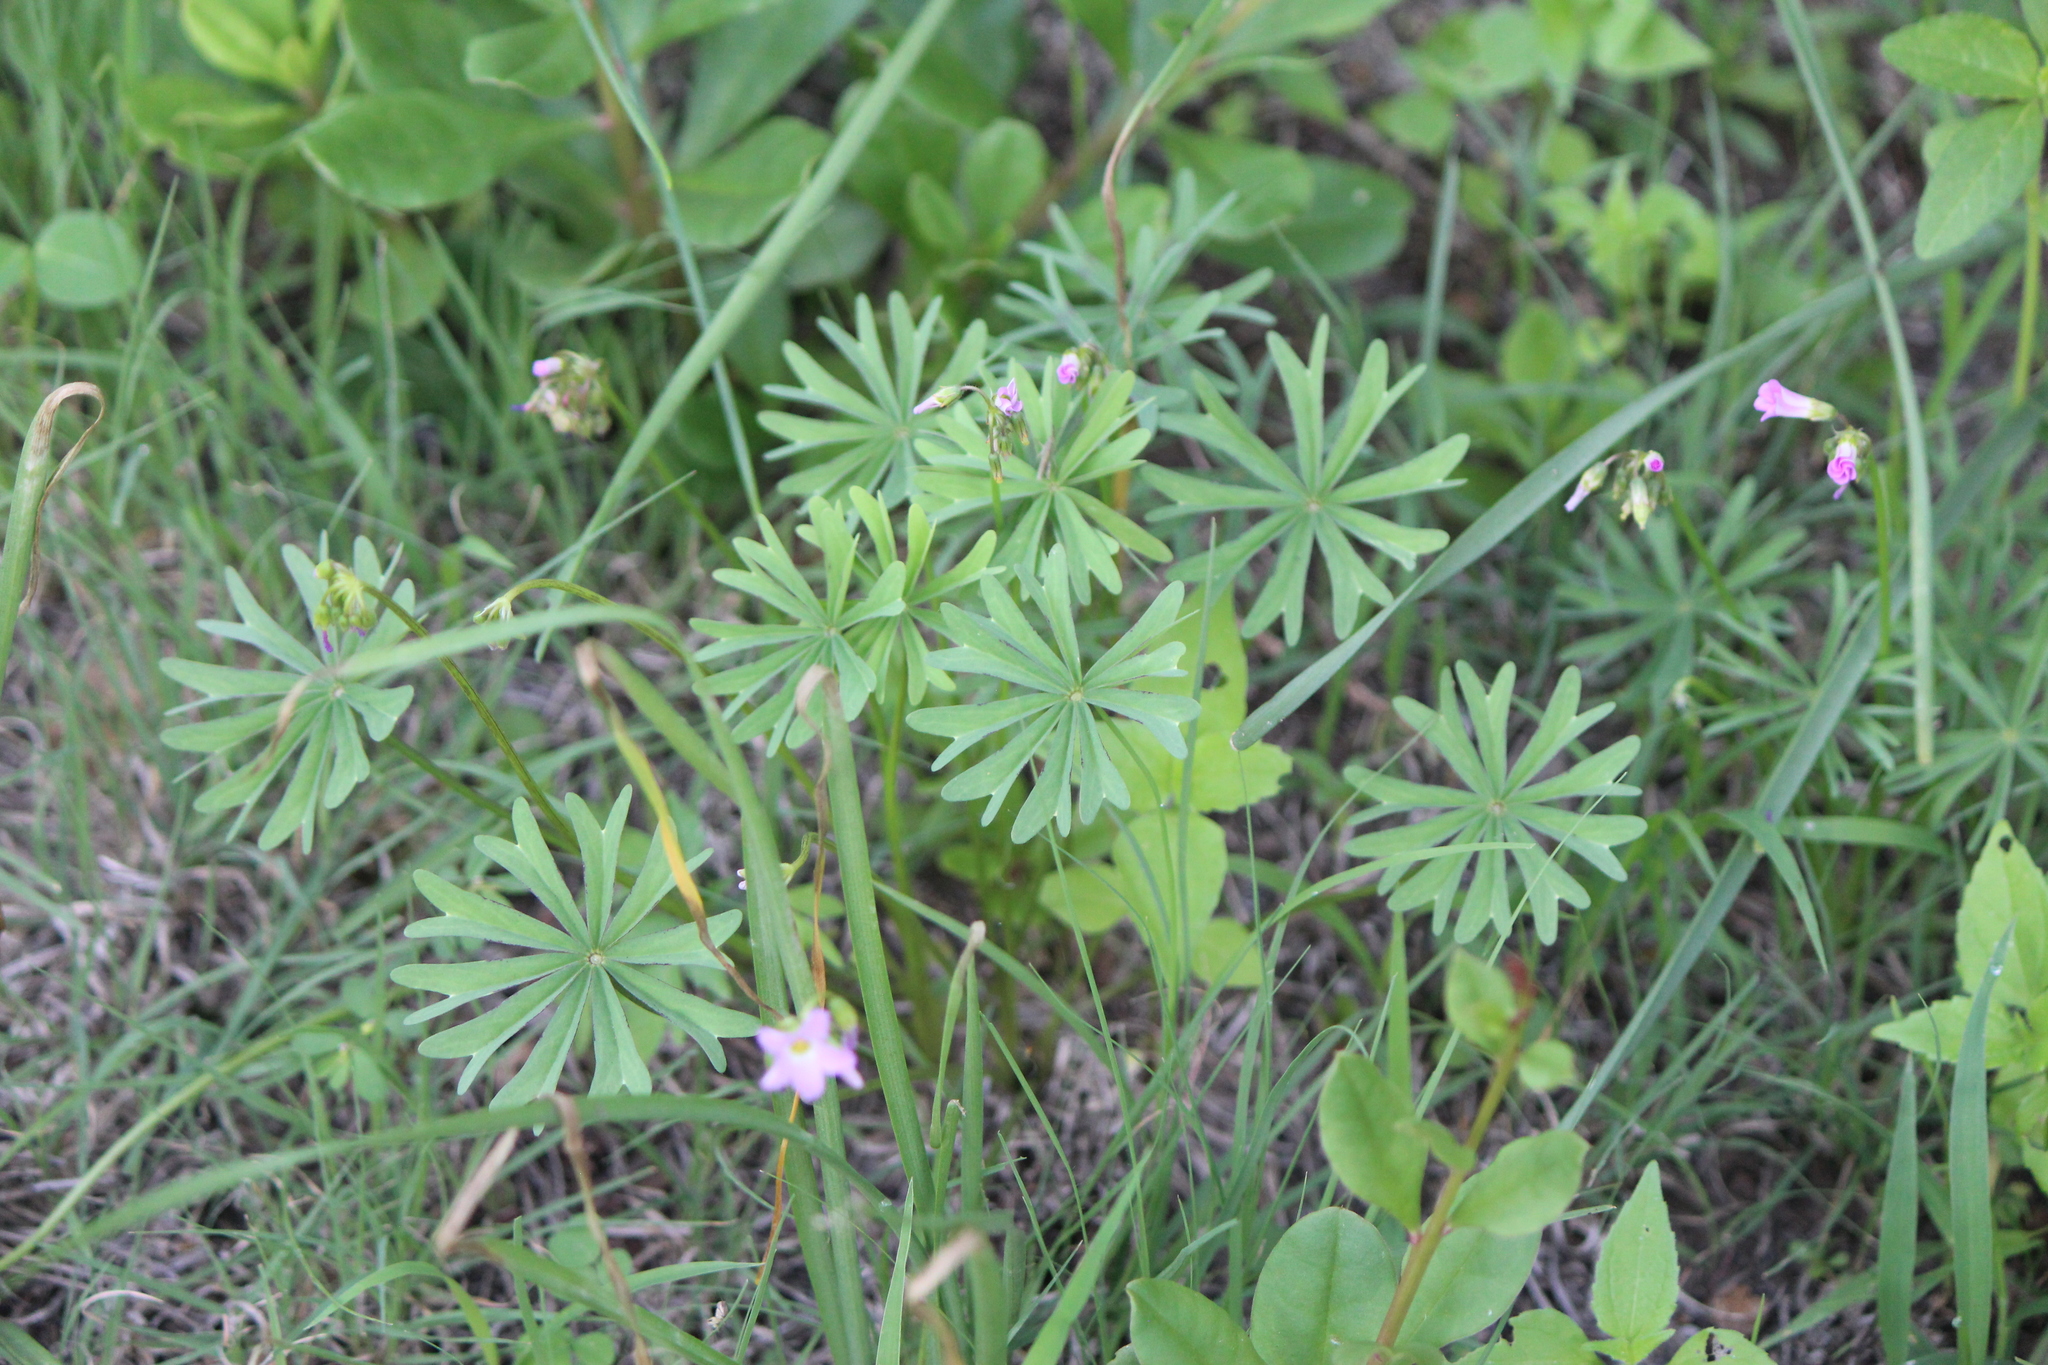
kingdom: Plantae
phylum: Tracheophyta
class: Magnoliopsida
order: Oxalidales
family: Oxalidaceae
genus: Oxalis
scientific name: Oxalis decaphylla
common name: Ten-leaved pink-sorrel
